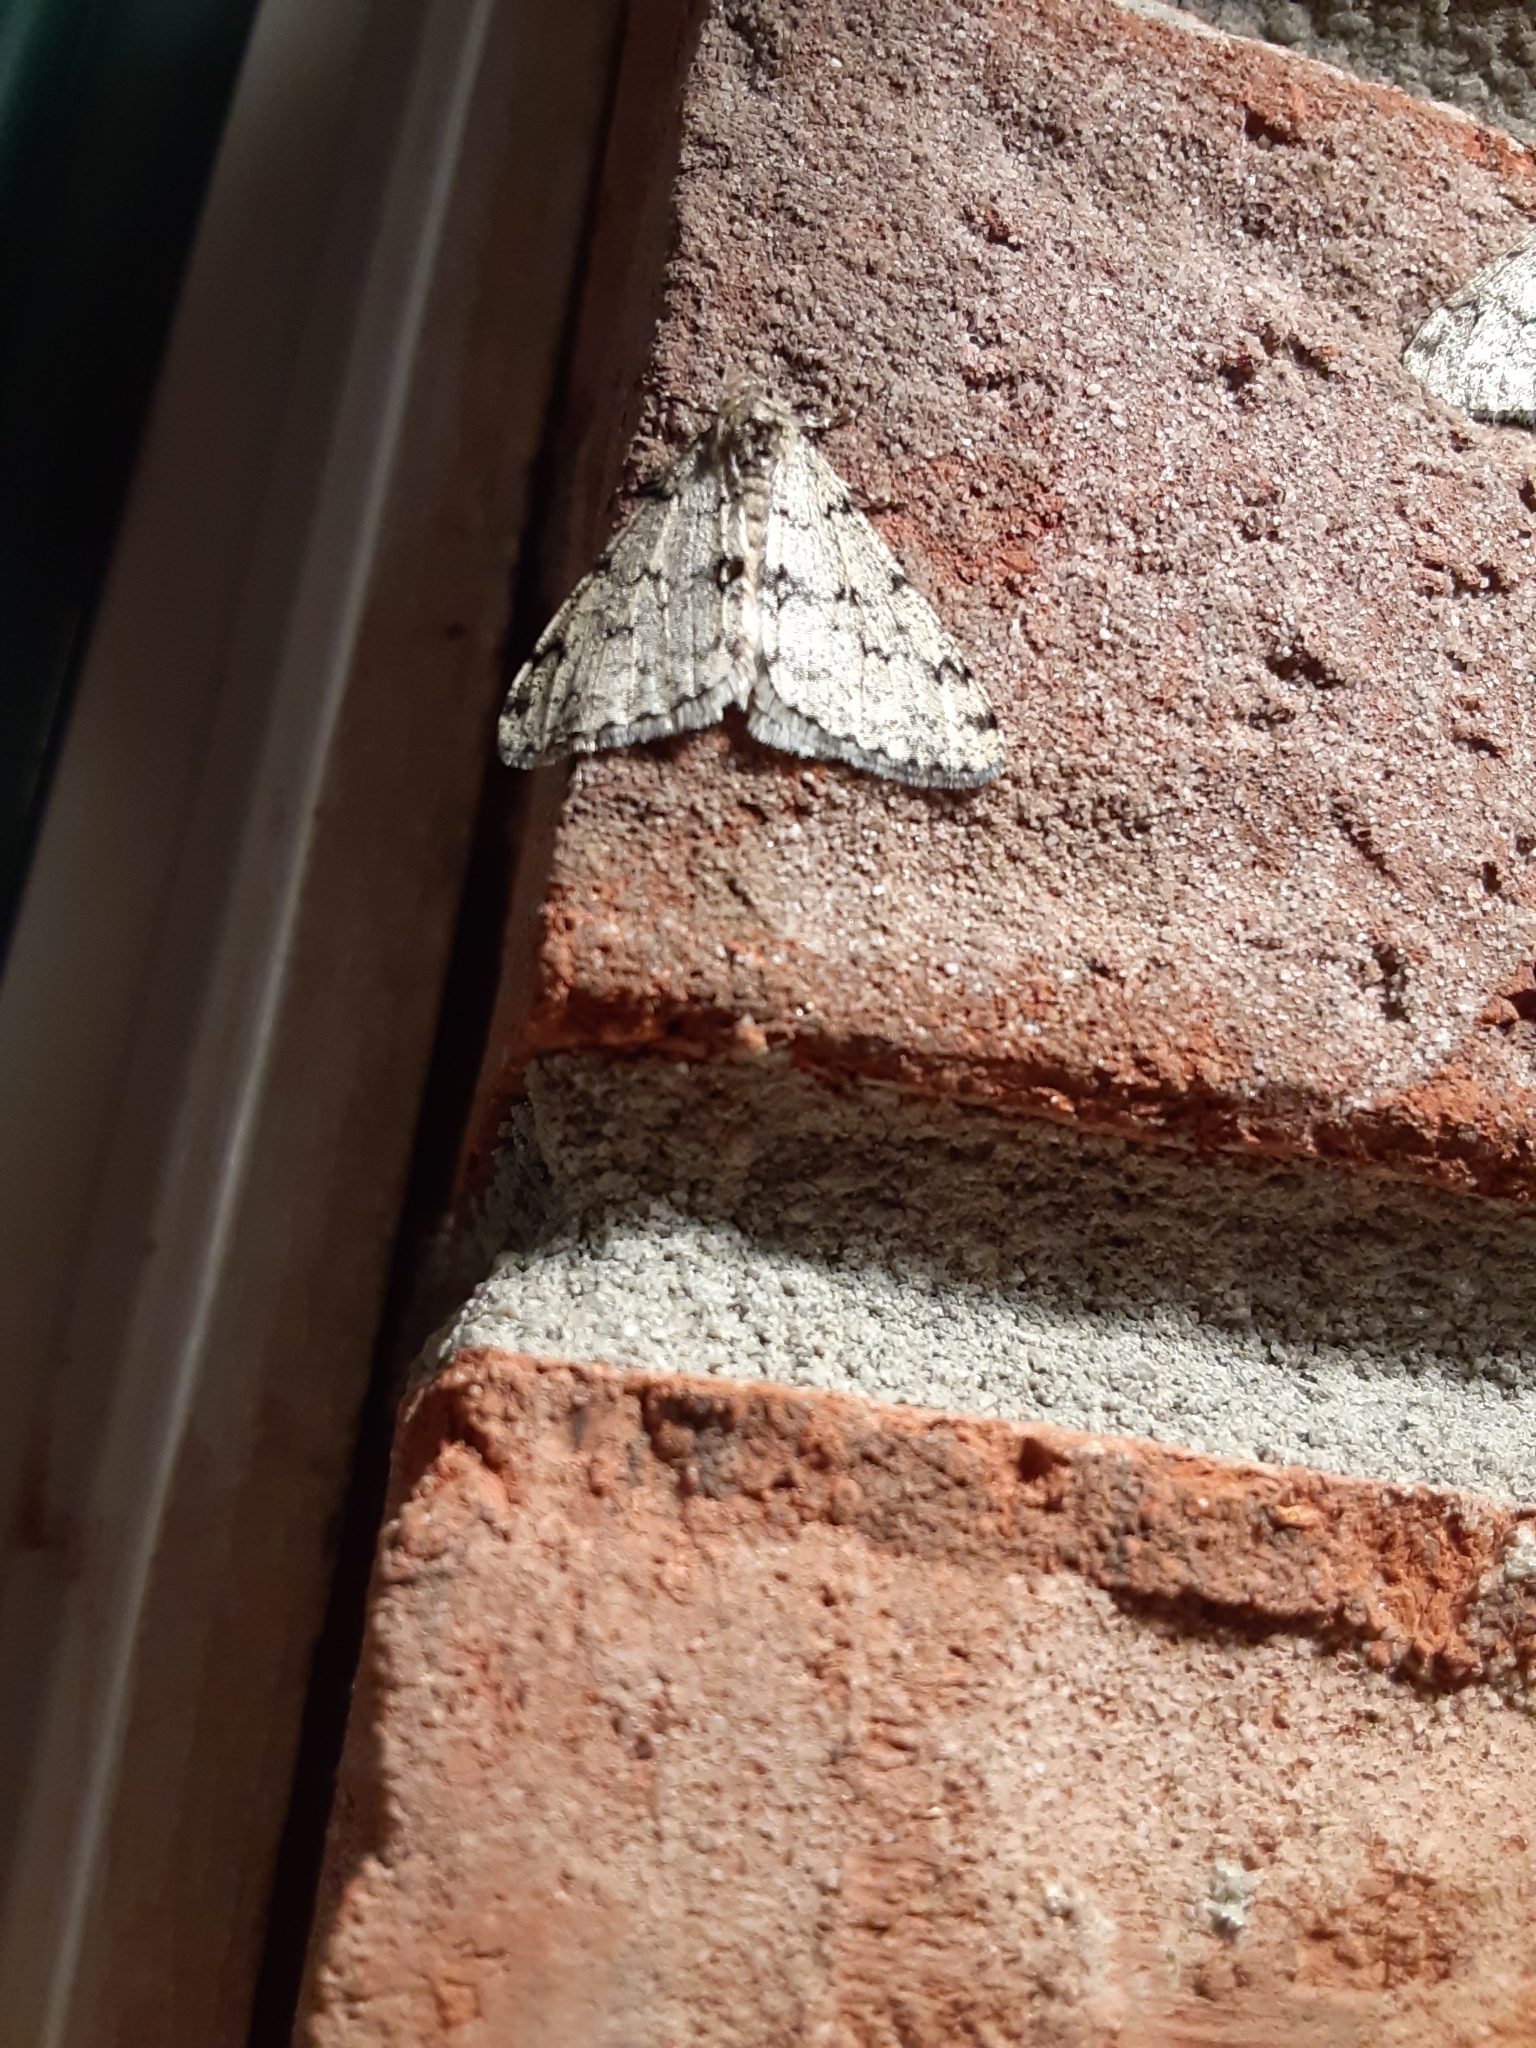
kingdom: Animalia
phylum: Arthropoda
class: Insecta
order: Lepidoptera
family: Geometridae
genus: Phigalia
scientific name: Phigalia strigataria
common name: Small phigalia
